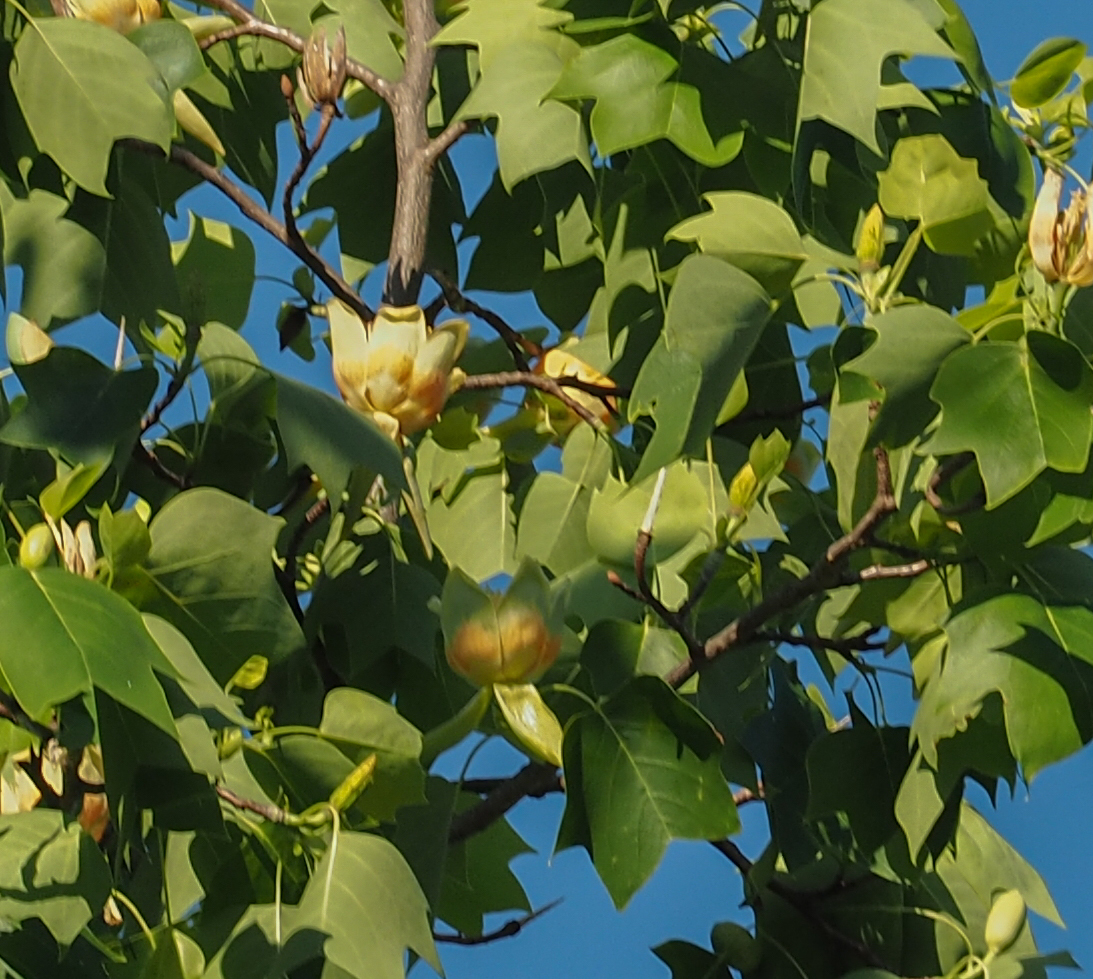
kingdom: Plantae
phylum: Tracheophyta
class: Magnoliopsida
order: Magnoliales
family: Magnoliaceae
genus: Liriodendron
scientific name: Liriodendron tulipifera
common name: Tulip tree
